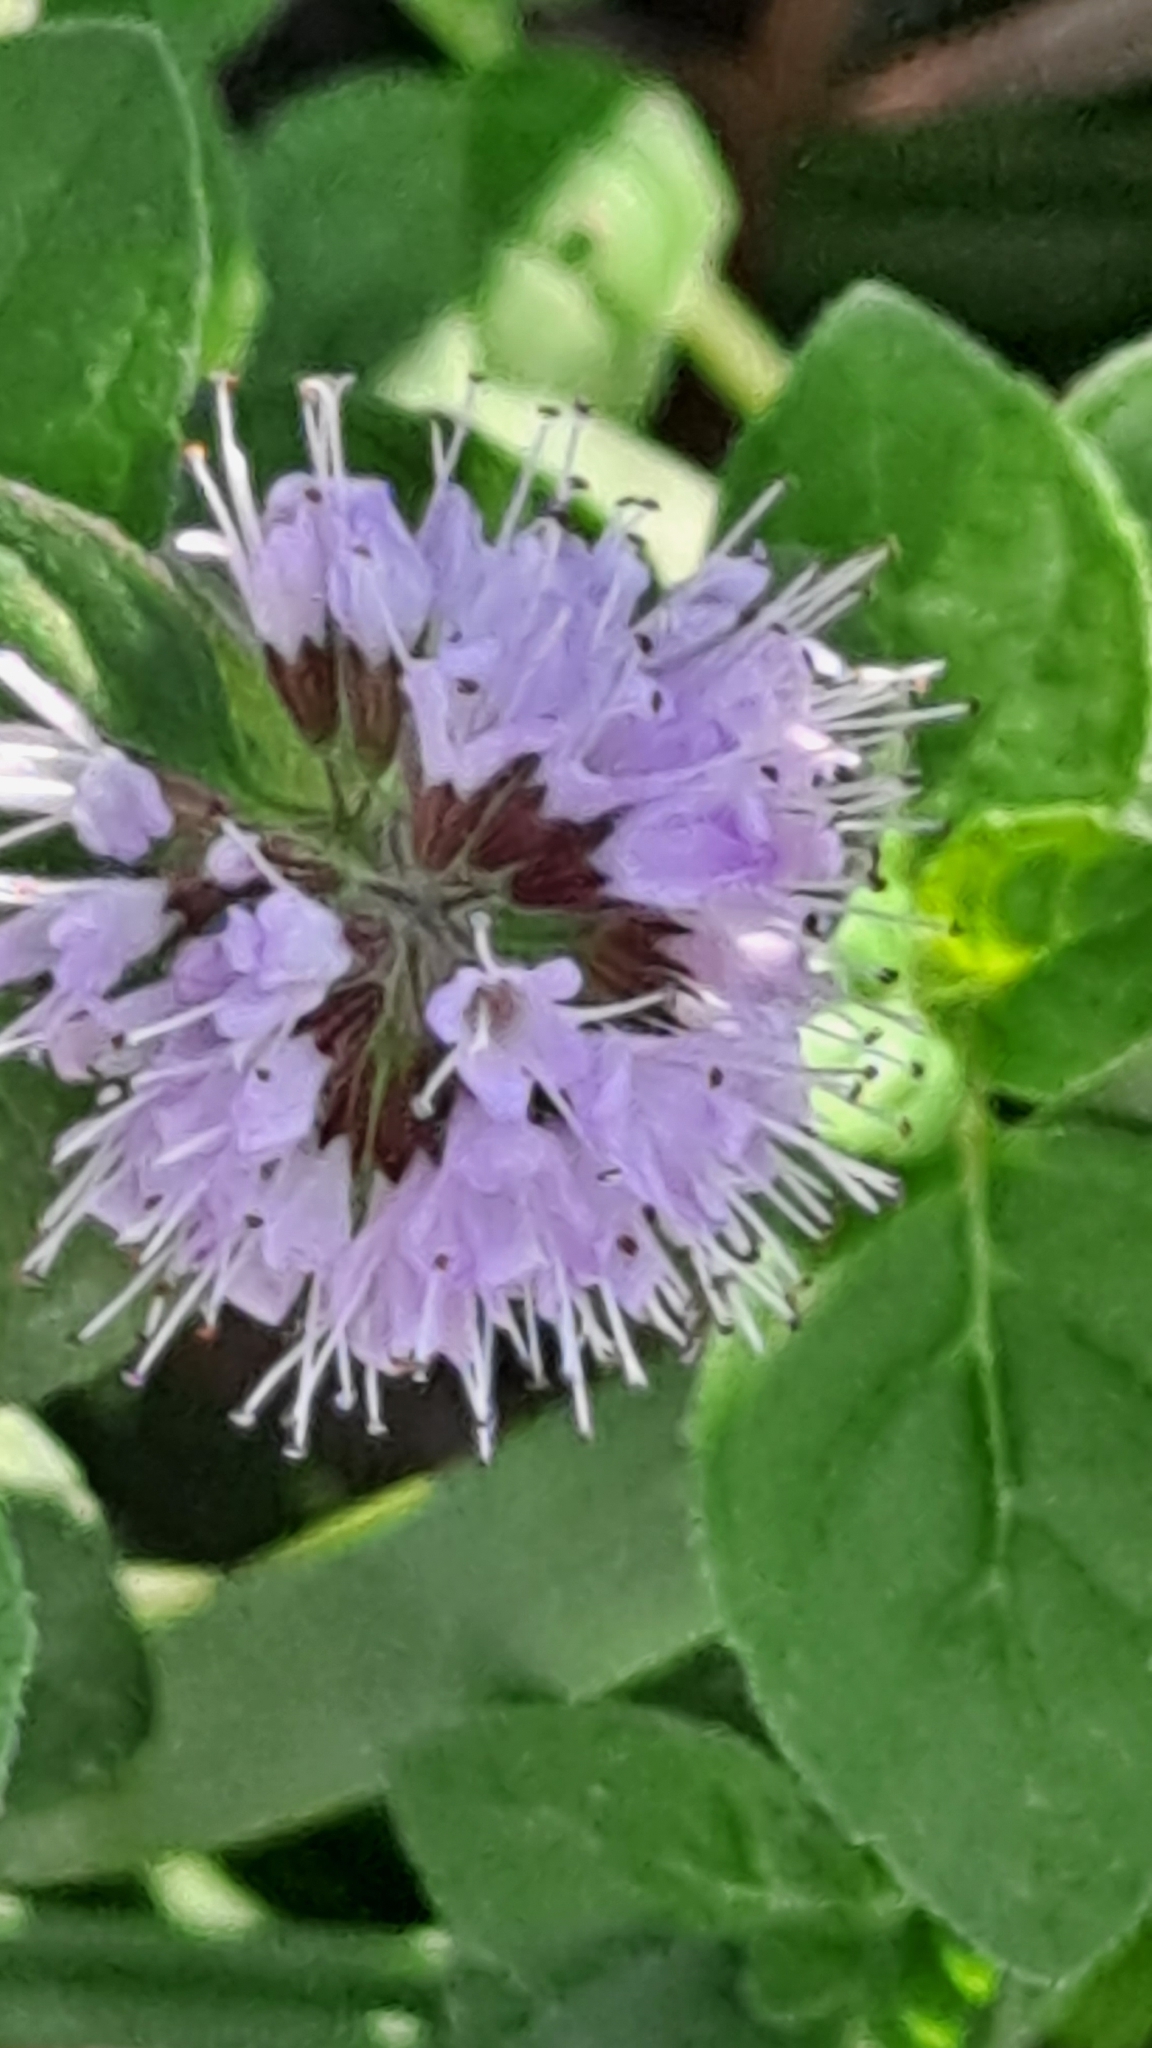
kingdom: Plantae
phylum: Tracheophyta
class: Magnoliopsida
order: Lamiales
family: Lamiaceae
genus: Mentha
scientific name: Mentha aquatica
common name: Water mint
